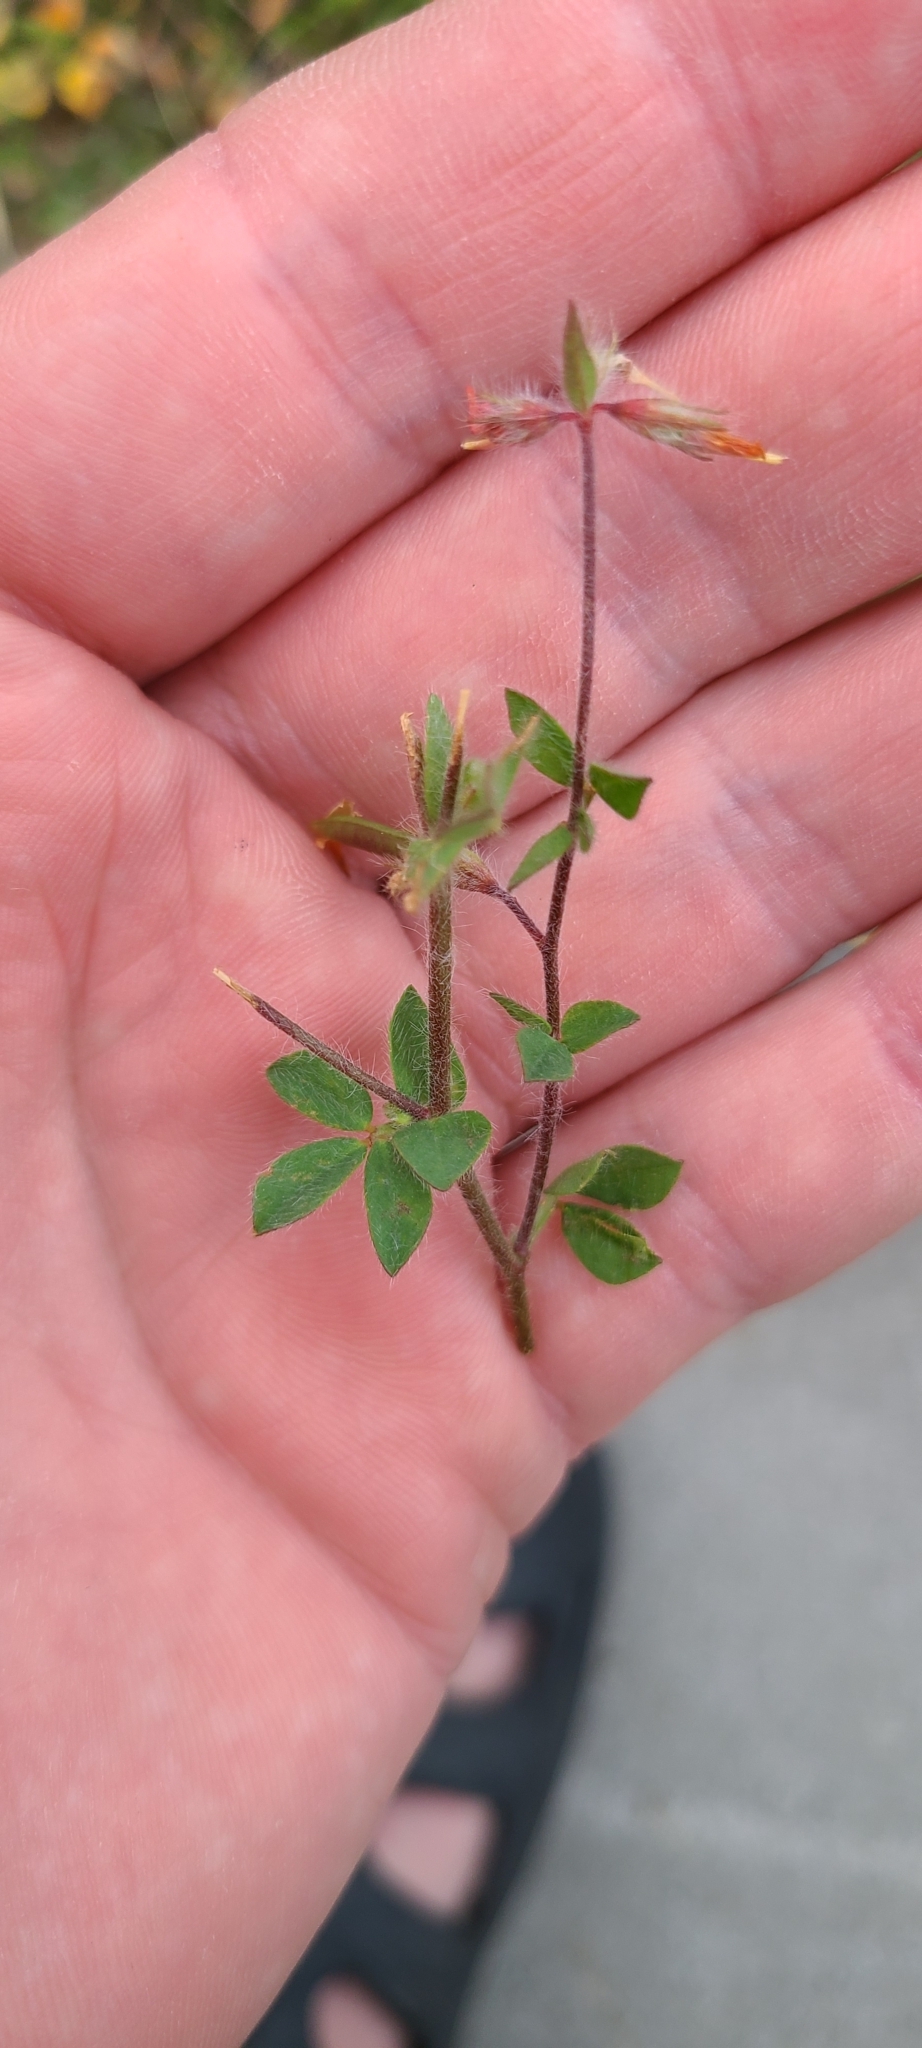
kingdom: Plantae
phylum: Tracheophyta
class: Magnoliopsida
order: Fabales
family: Fabaceae
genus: Lotus
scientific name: Lotus subbiflorus
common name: Hairy bird's-foot trefoil
